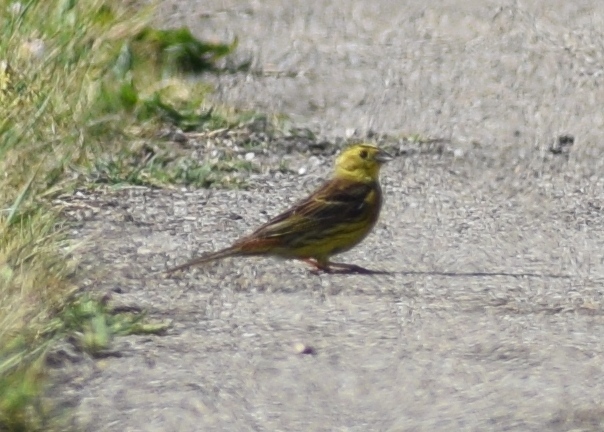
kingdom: Animalia
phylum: Chordata
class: Aves
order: Passeriformes
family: Emberizidae
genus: Emberiza
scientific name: Emberiza citrinella
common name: Yellowhammer
